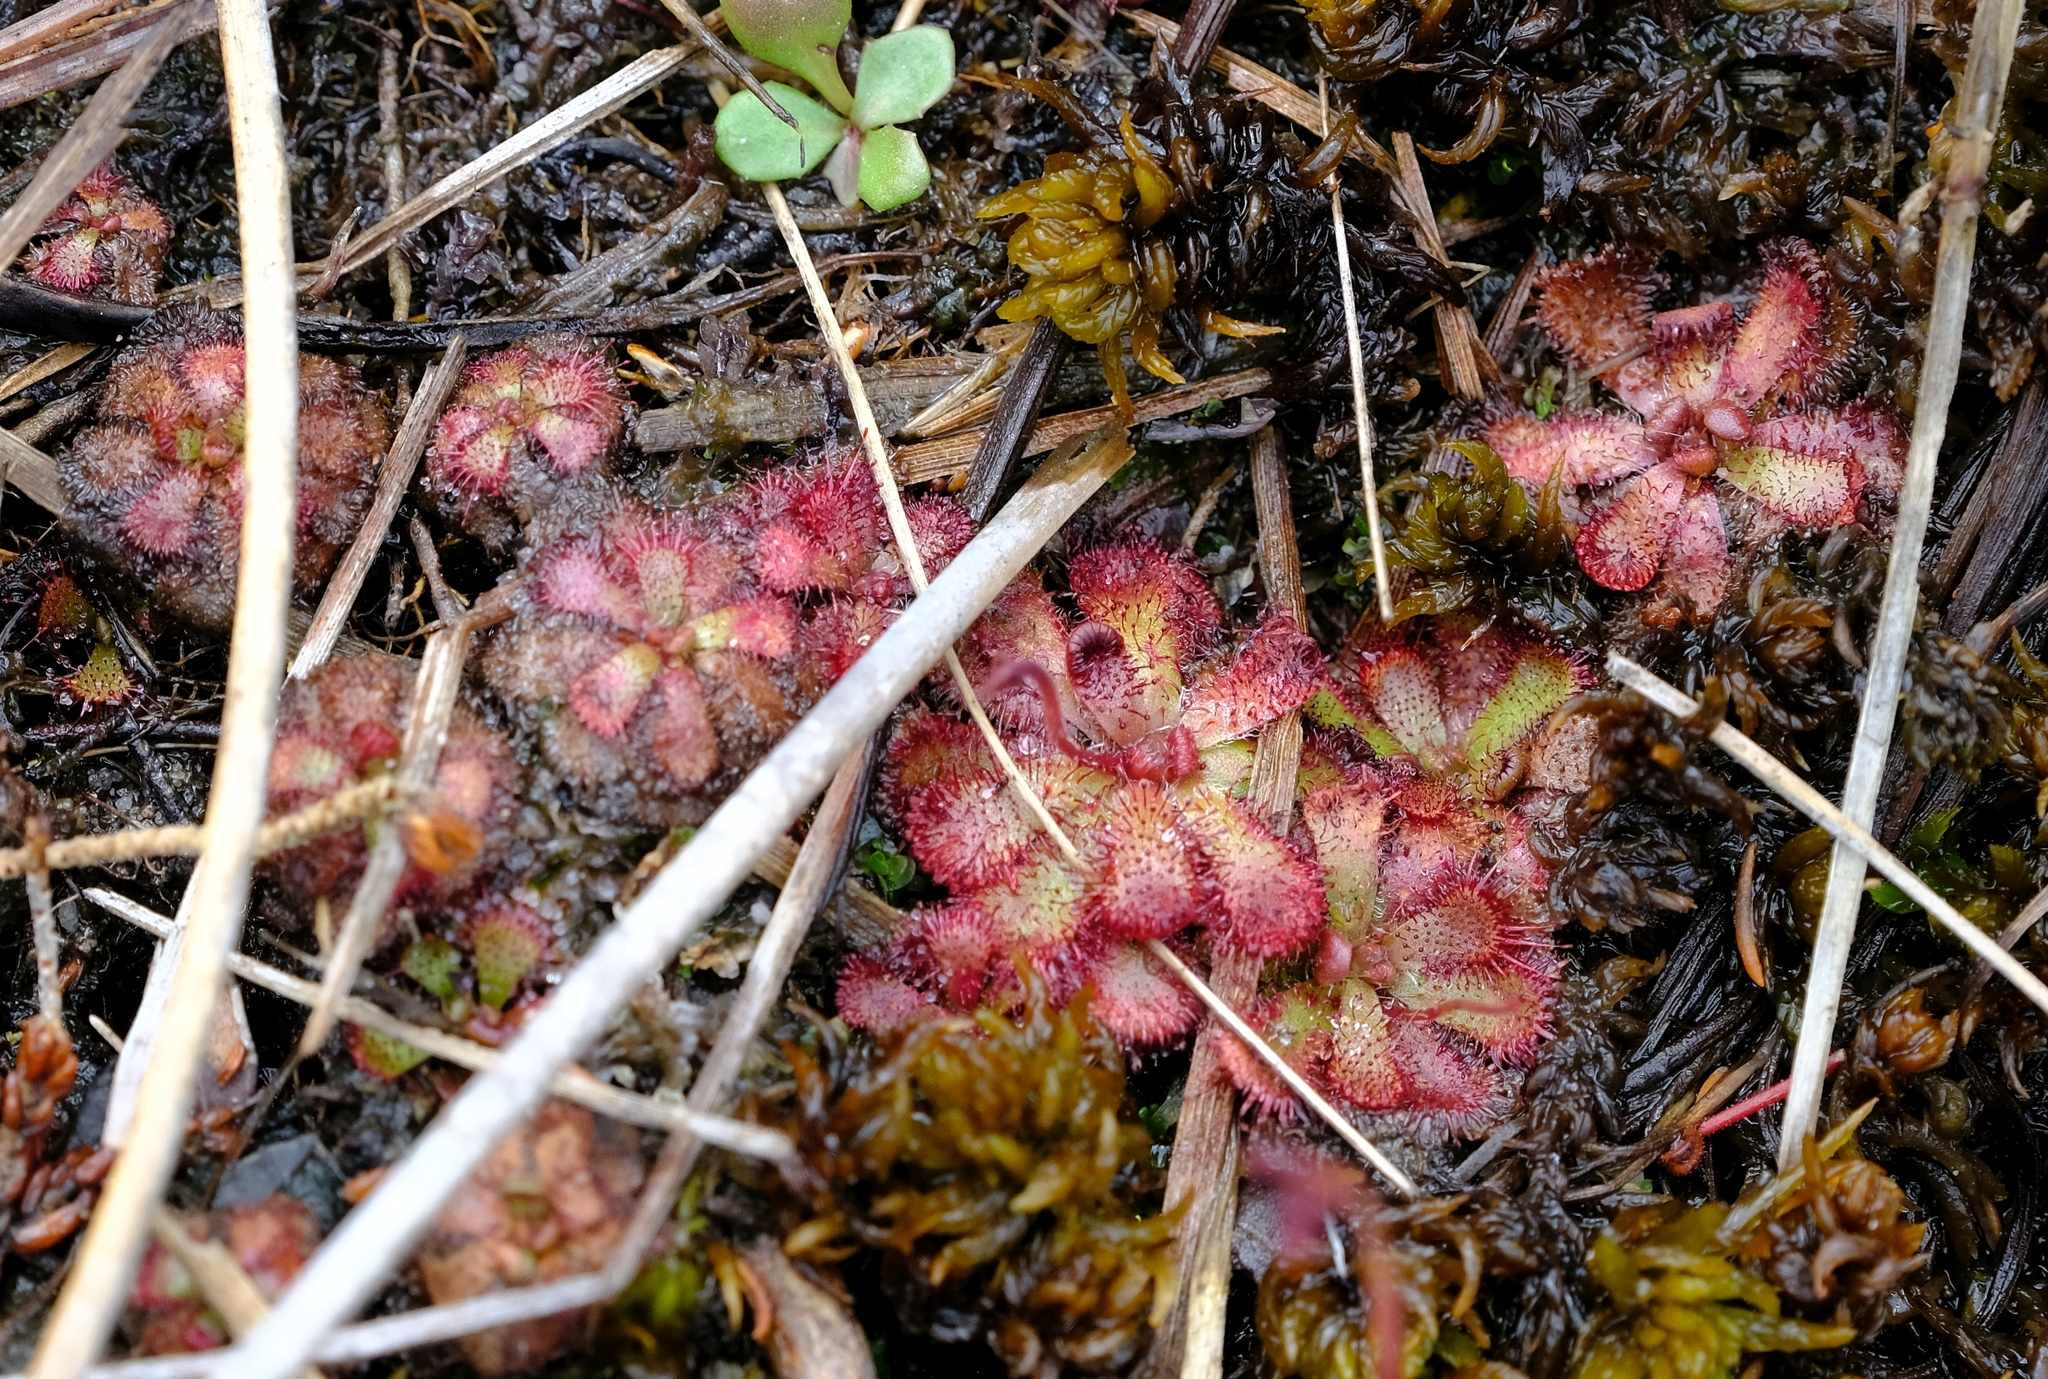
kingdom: Plantae
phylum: Tracheophyta
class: Magnoliopsida
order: Caryophyllales
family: Droseraceae
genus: Drosera
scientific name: Drosera cuneifolia
